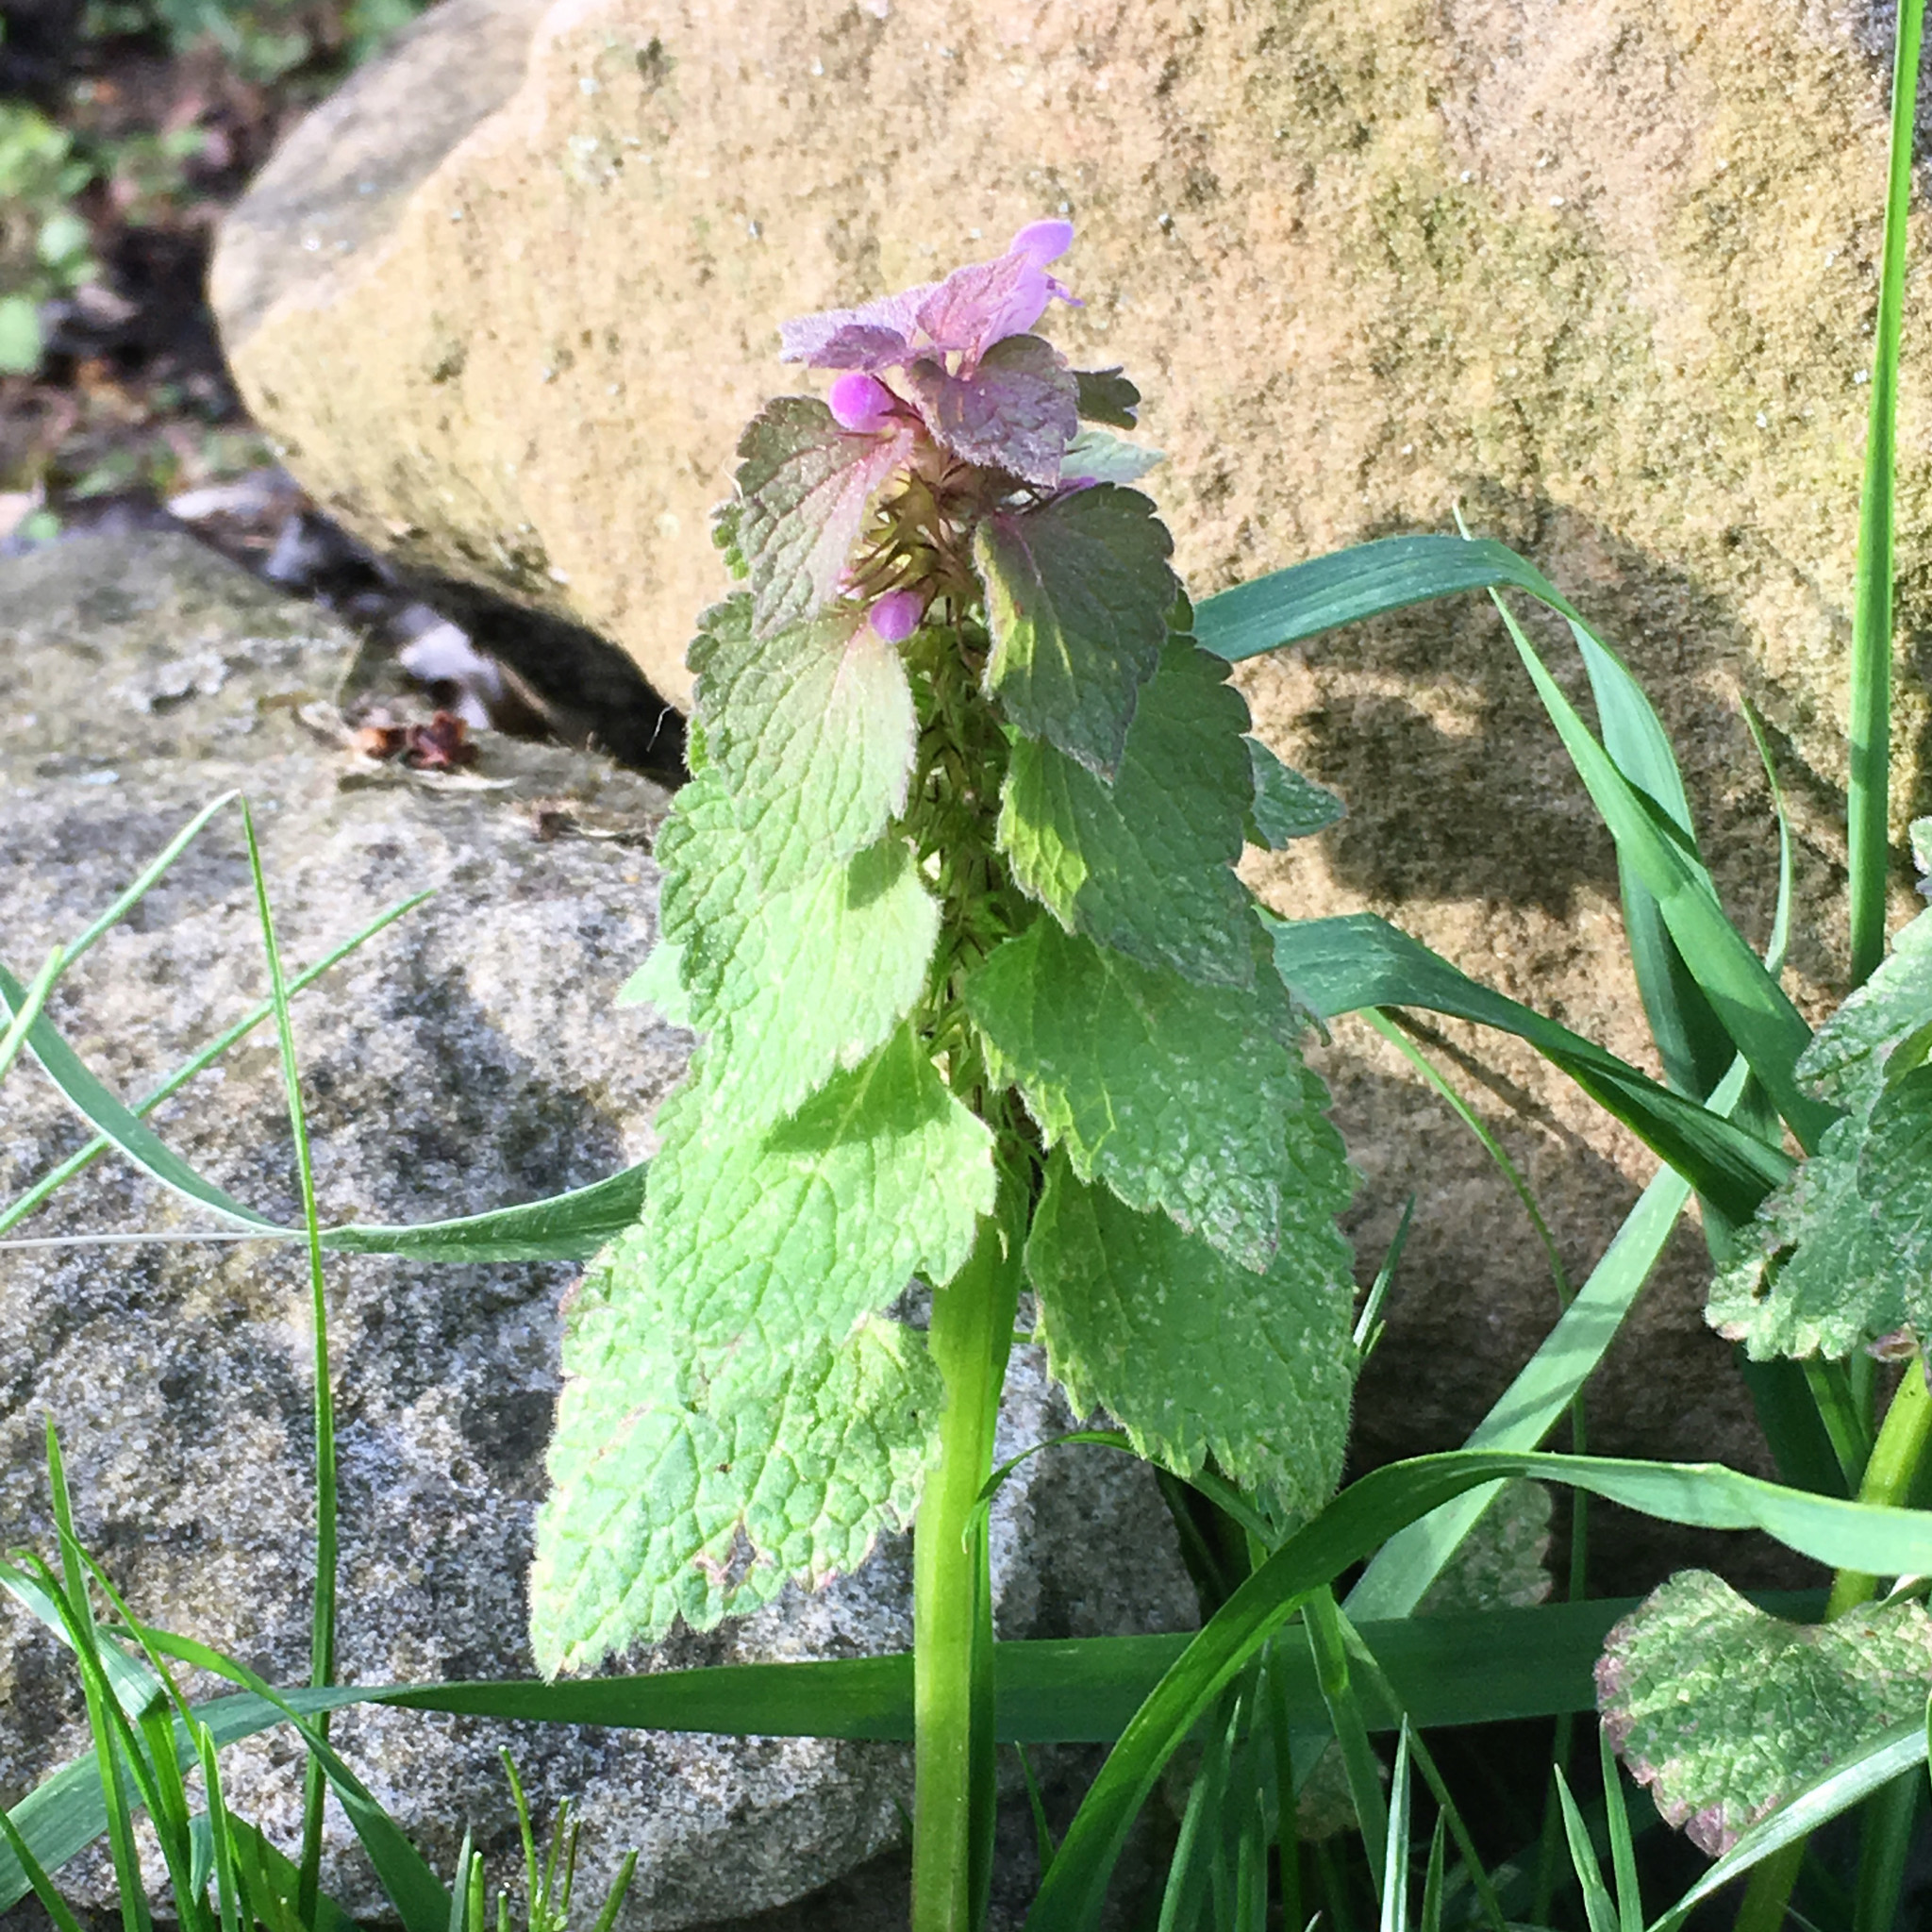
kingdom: Plantae
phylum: Tracheophyta
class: Magnoliopsida
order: Lamiales
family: Lamiaceae
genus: Lamium
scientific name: Lamium purpureum
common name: Red dead-nettle
